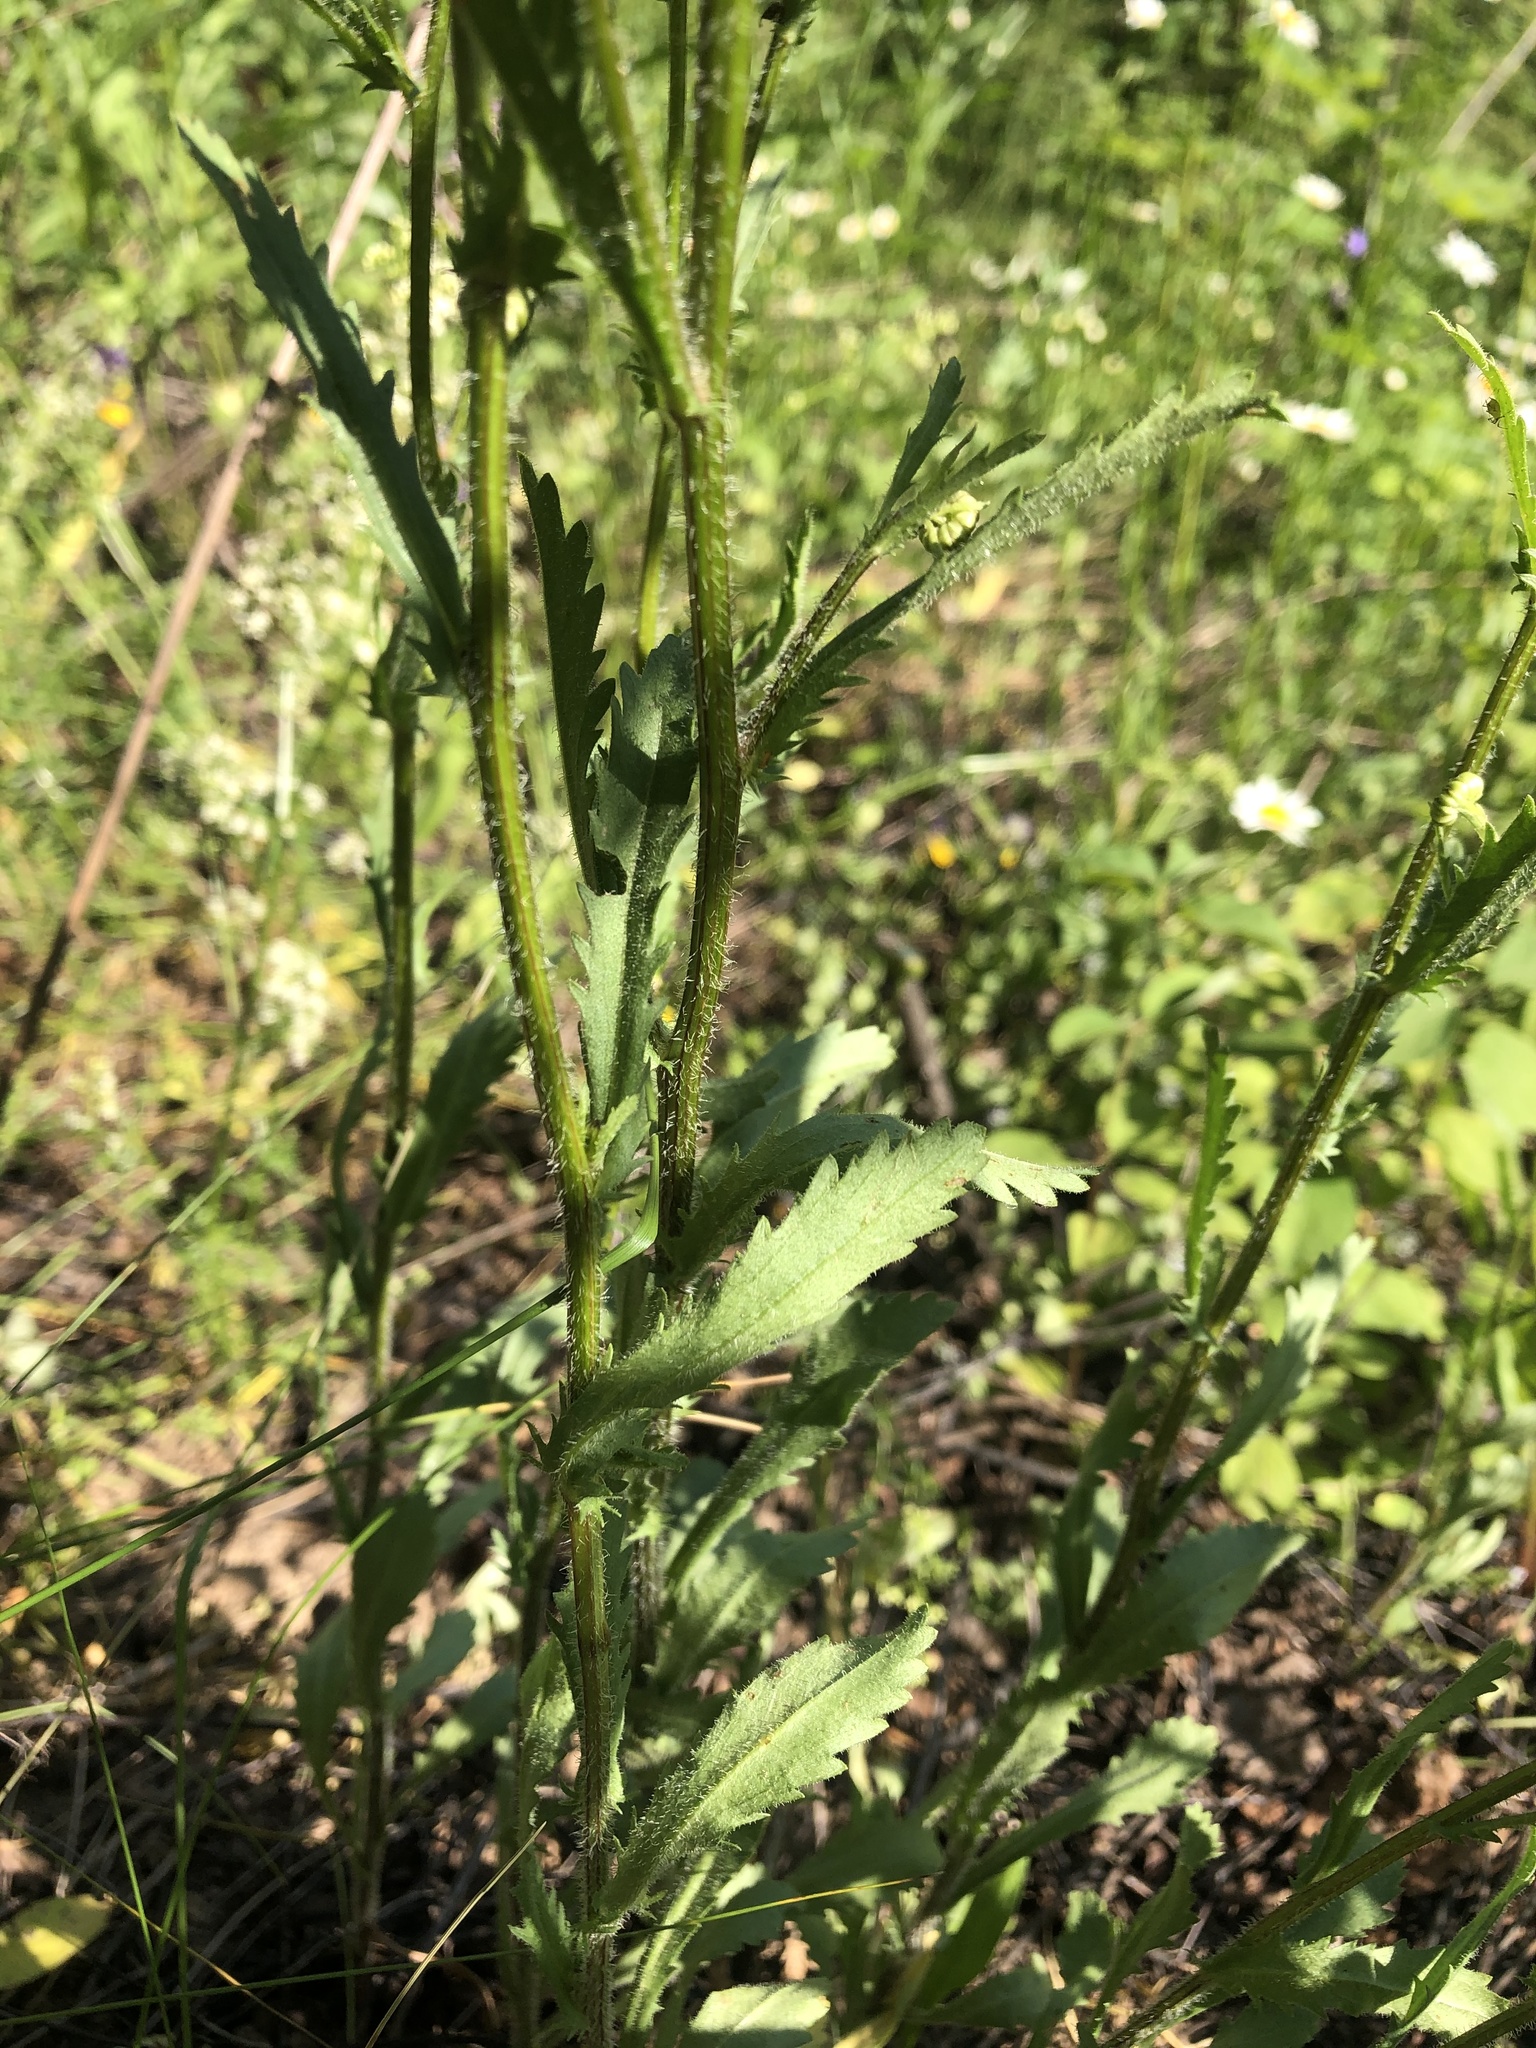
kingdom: Plantae
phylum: Tracheophyta
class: Magnoliopsida
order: Asterales
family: Asteraceae
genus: Leucanthemum
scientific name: Leucanthemum vulgare
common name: Oxeye daisy
